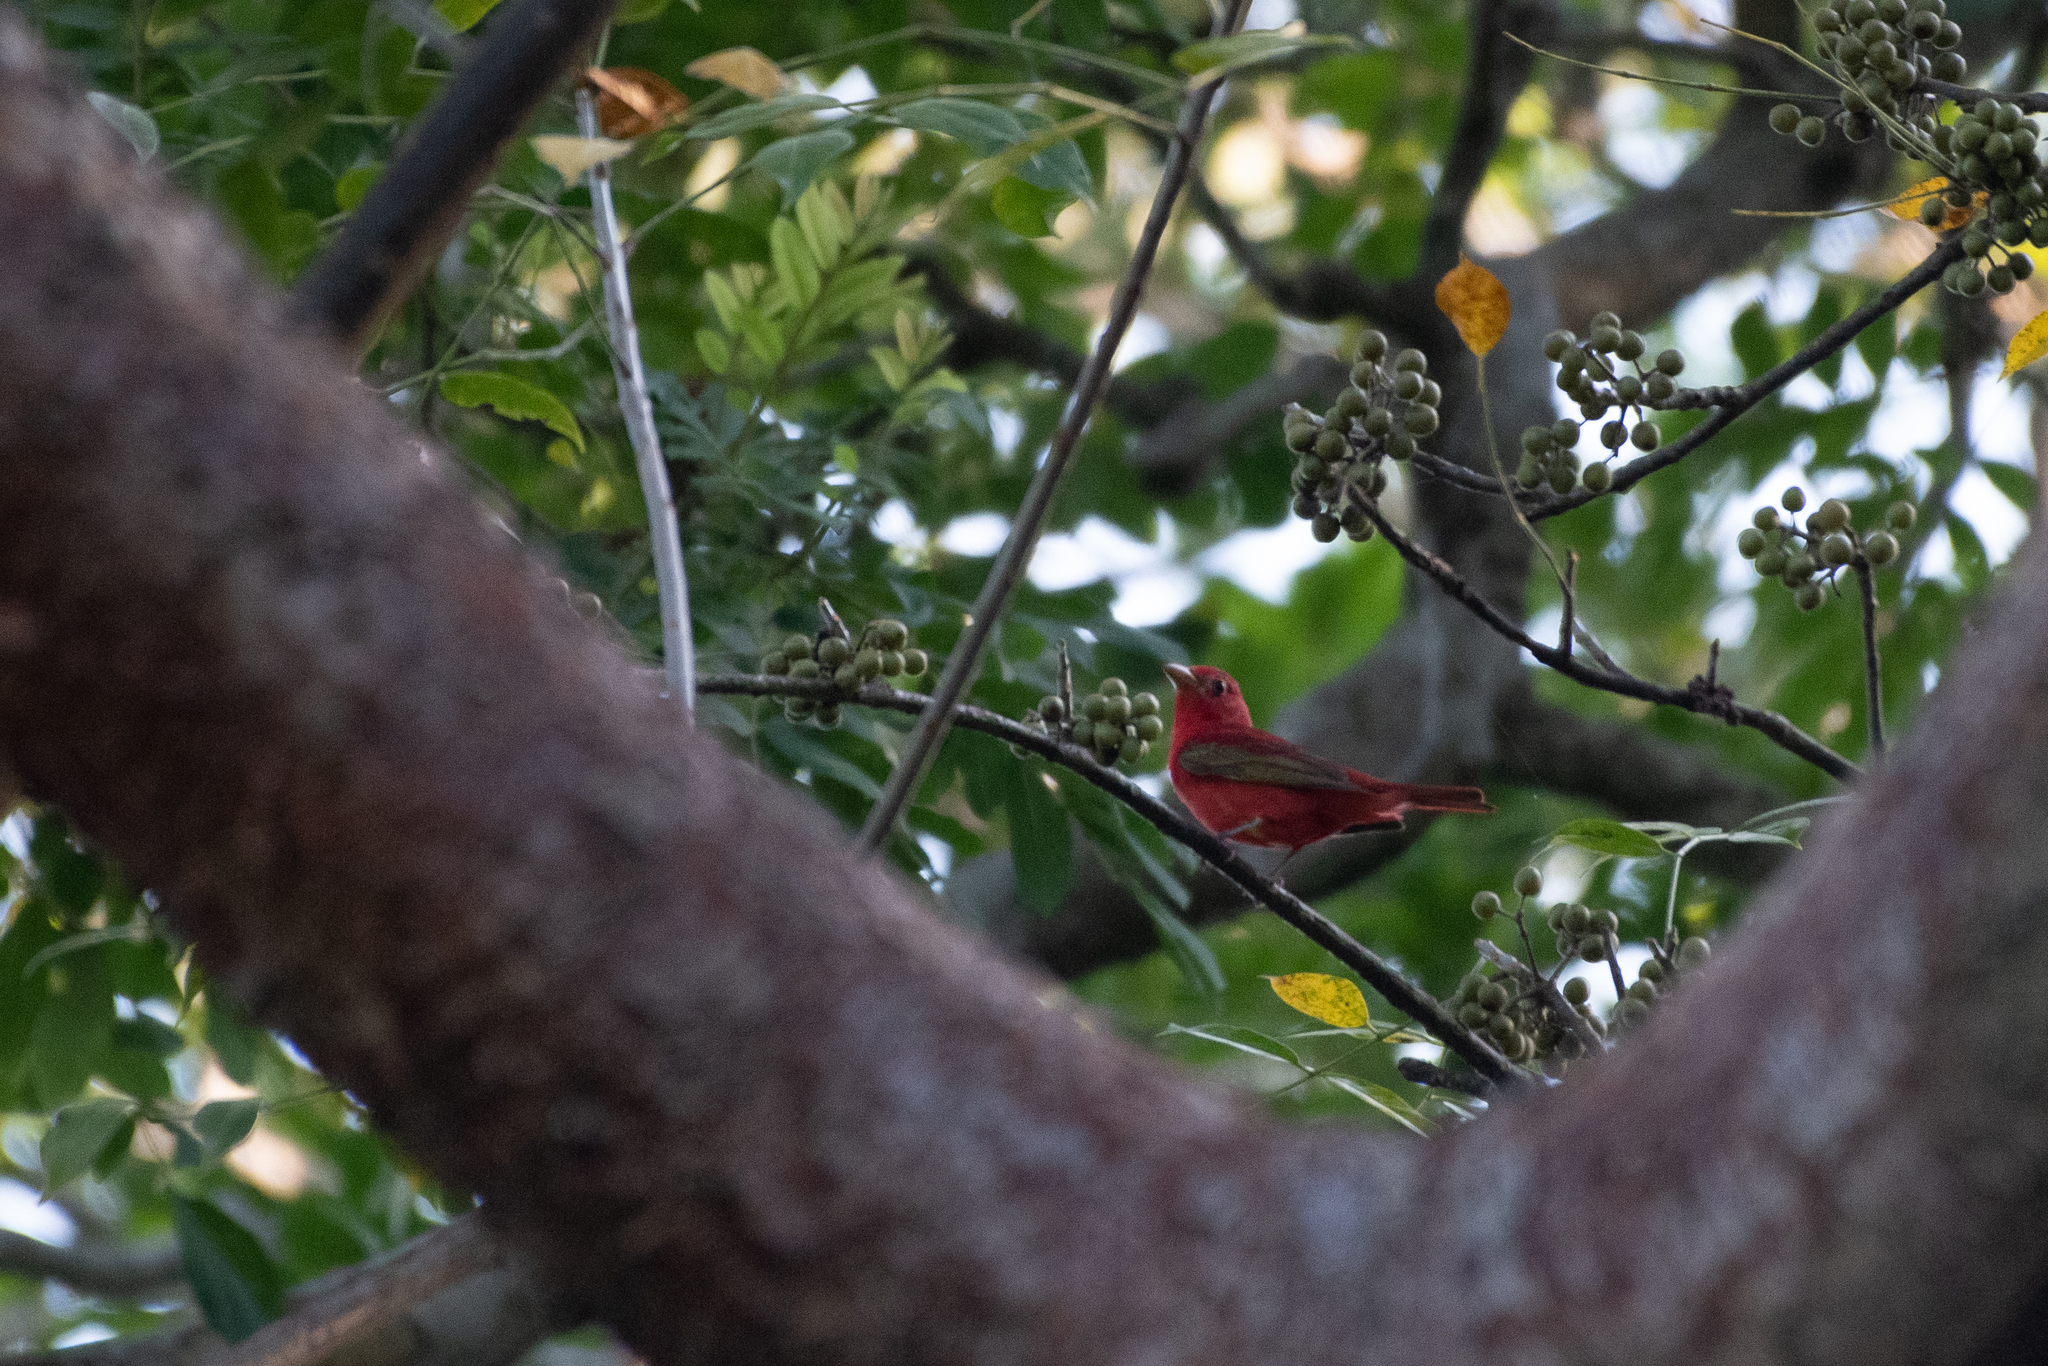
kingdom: Animalia
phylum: Chordata
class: Aves
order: Passeriformes
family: Cardinalidae
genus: Piranga
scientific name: Piranga rubra
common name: Summer tanager
